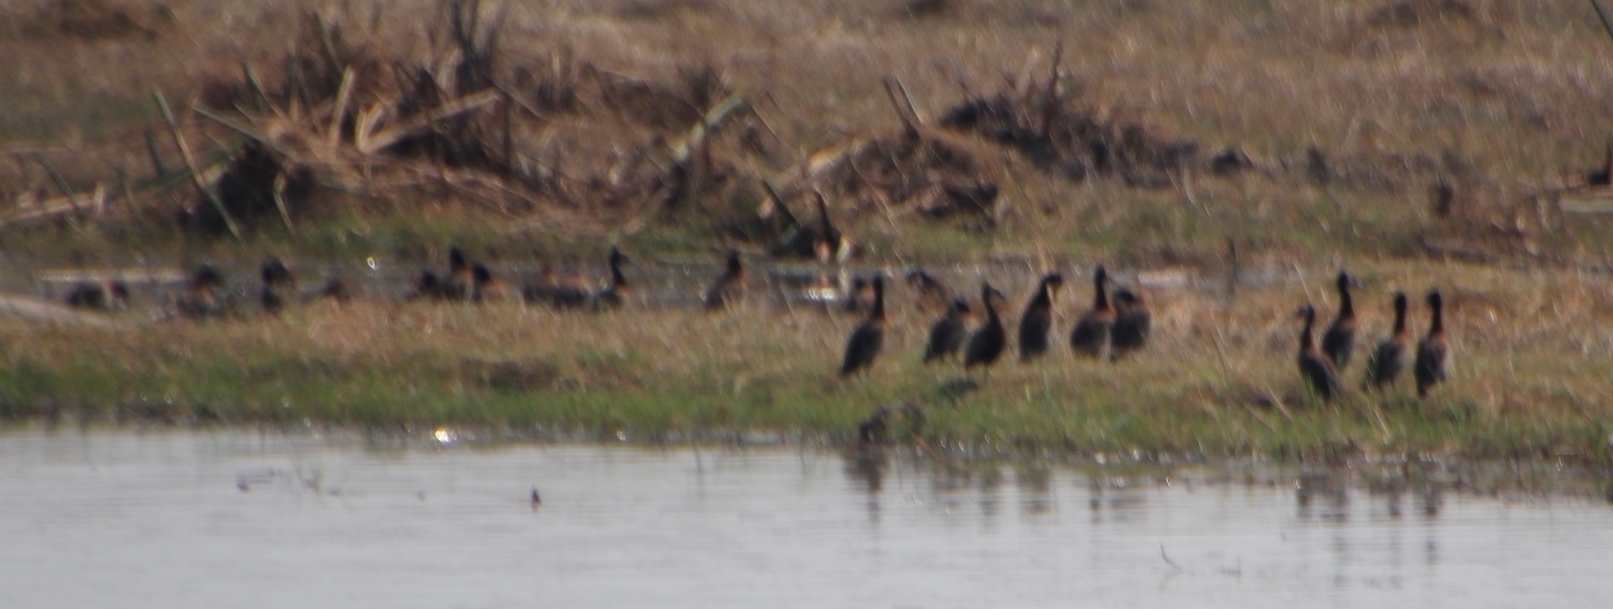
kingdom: Animalia
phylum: Chordata
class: Aves
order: Anseriformes
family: Anatidae
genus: Dendrocygna
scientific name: Dendrocygna viduata
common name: White-faced whistling duck
